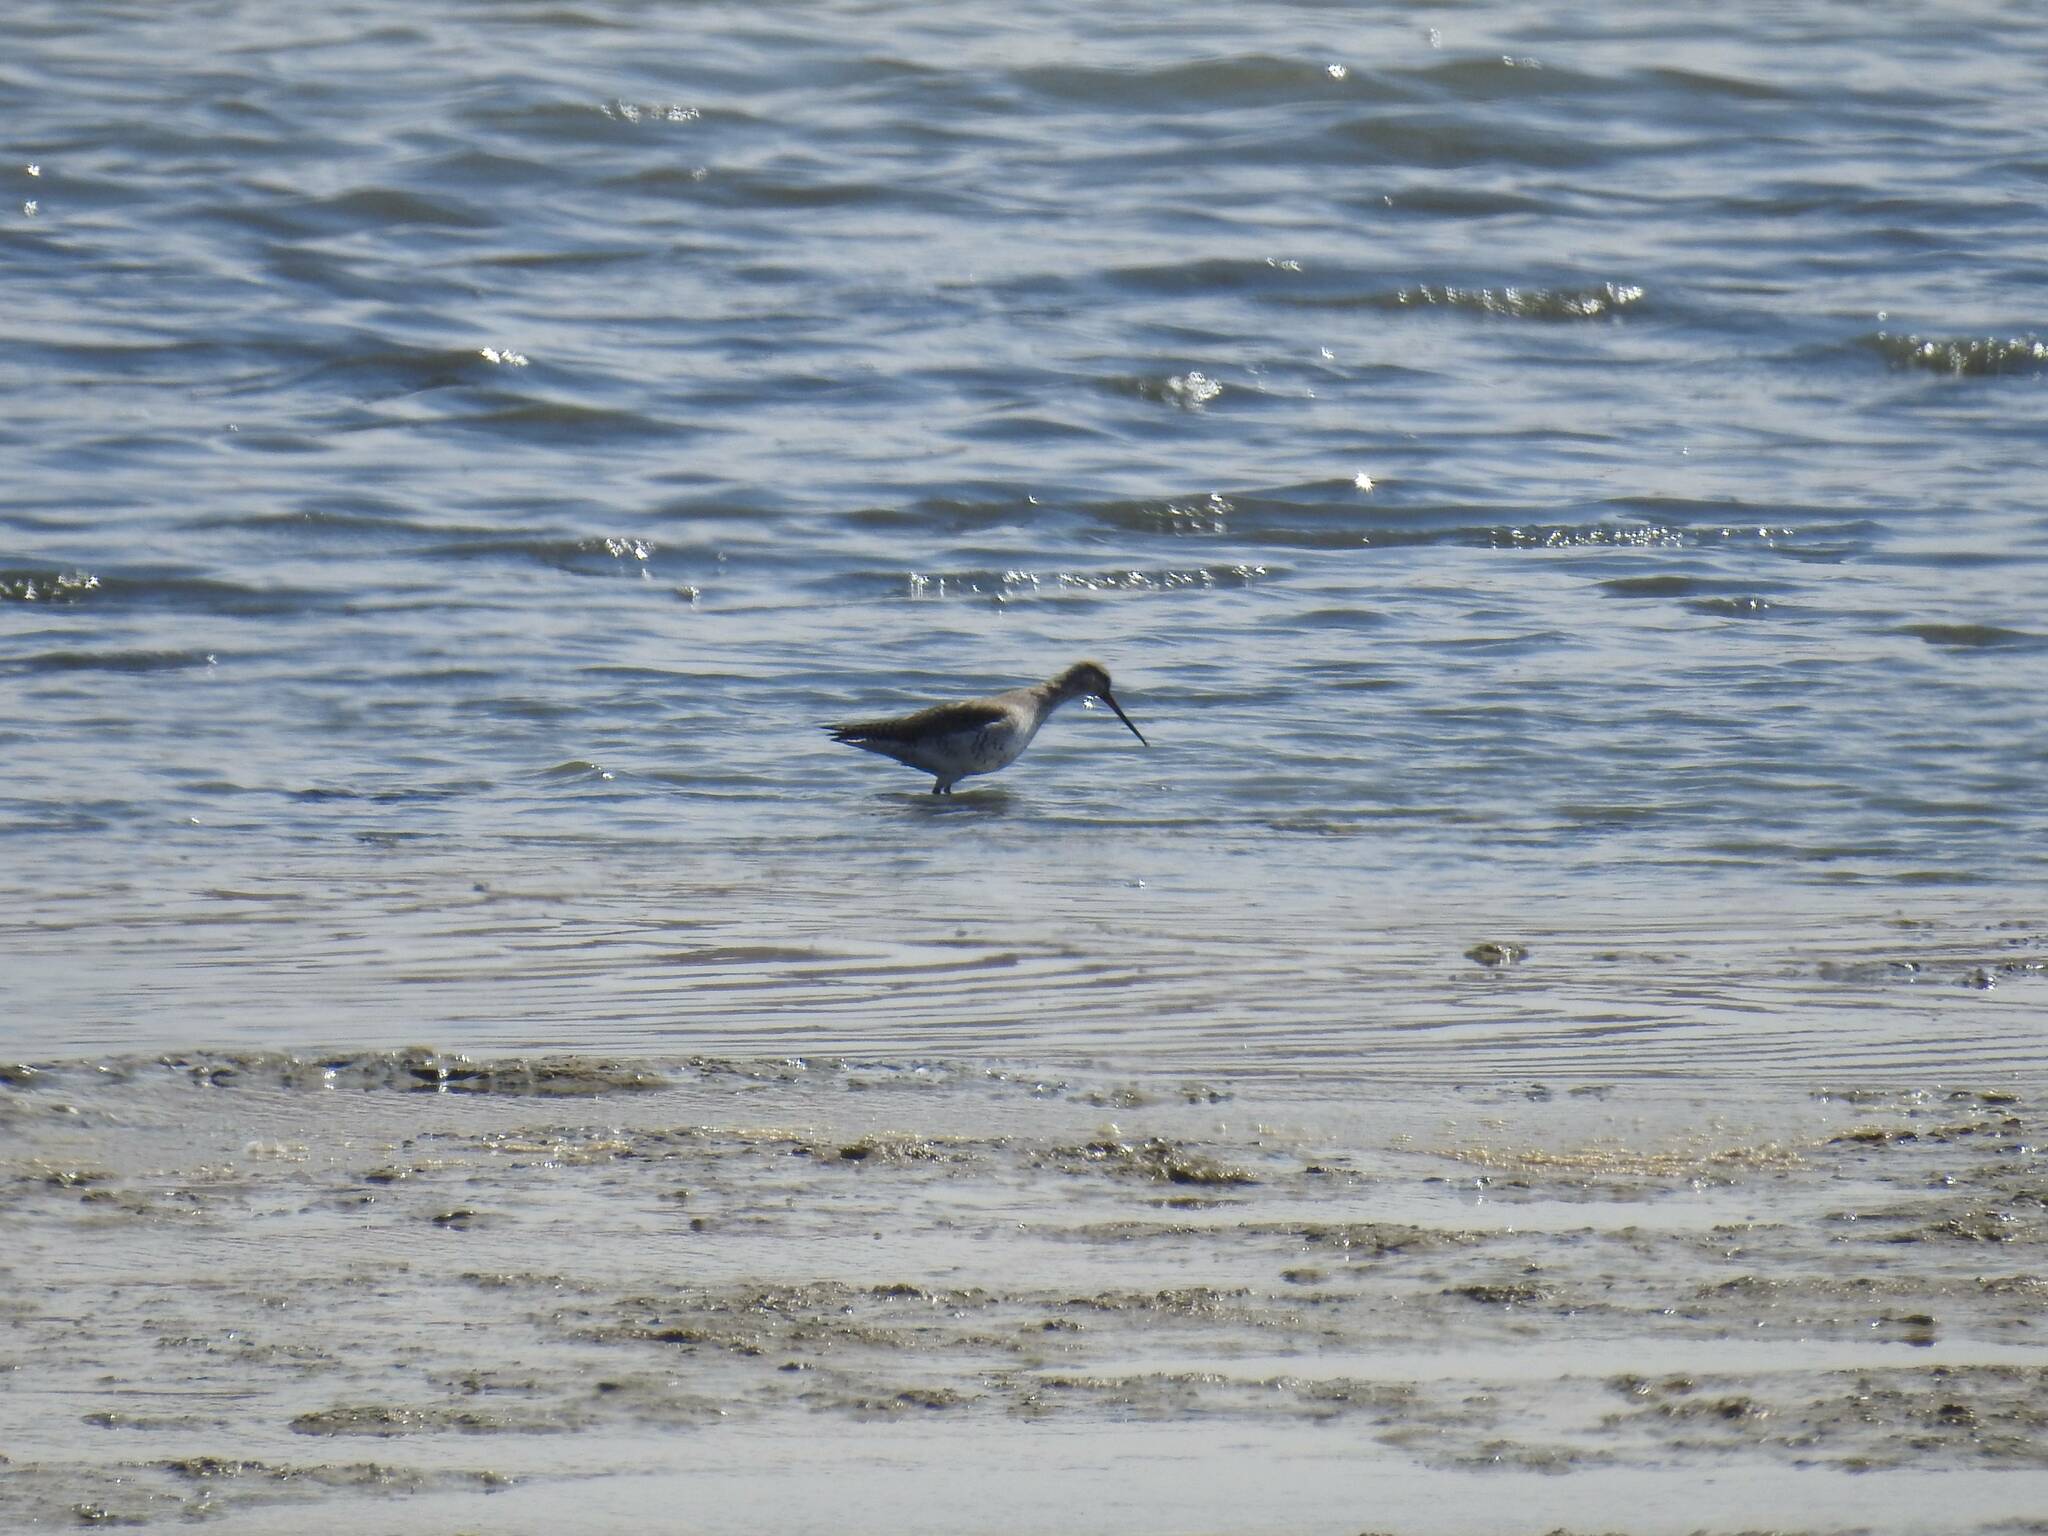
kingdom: Animalia
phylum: Chordata
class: Aves
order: Charadriiformes
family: Scolopacidae
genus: Tringa
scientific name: Tringa erythropus
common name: Spotted redshank
